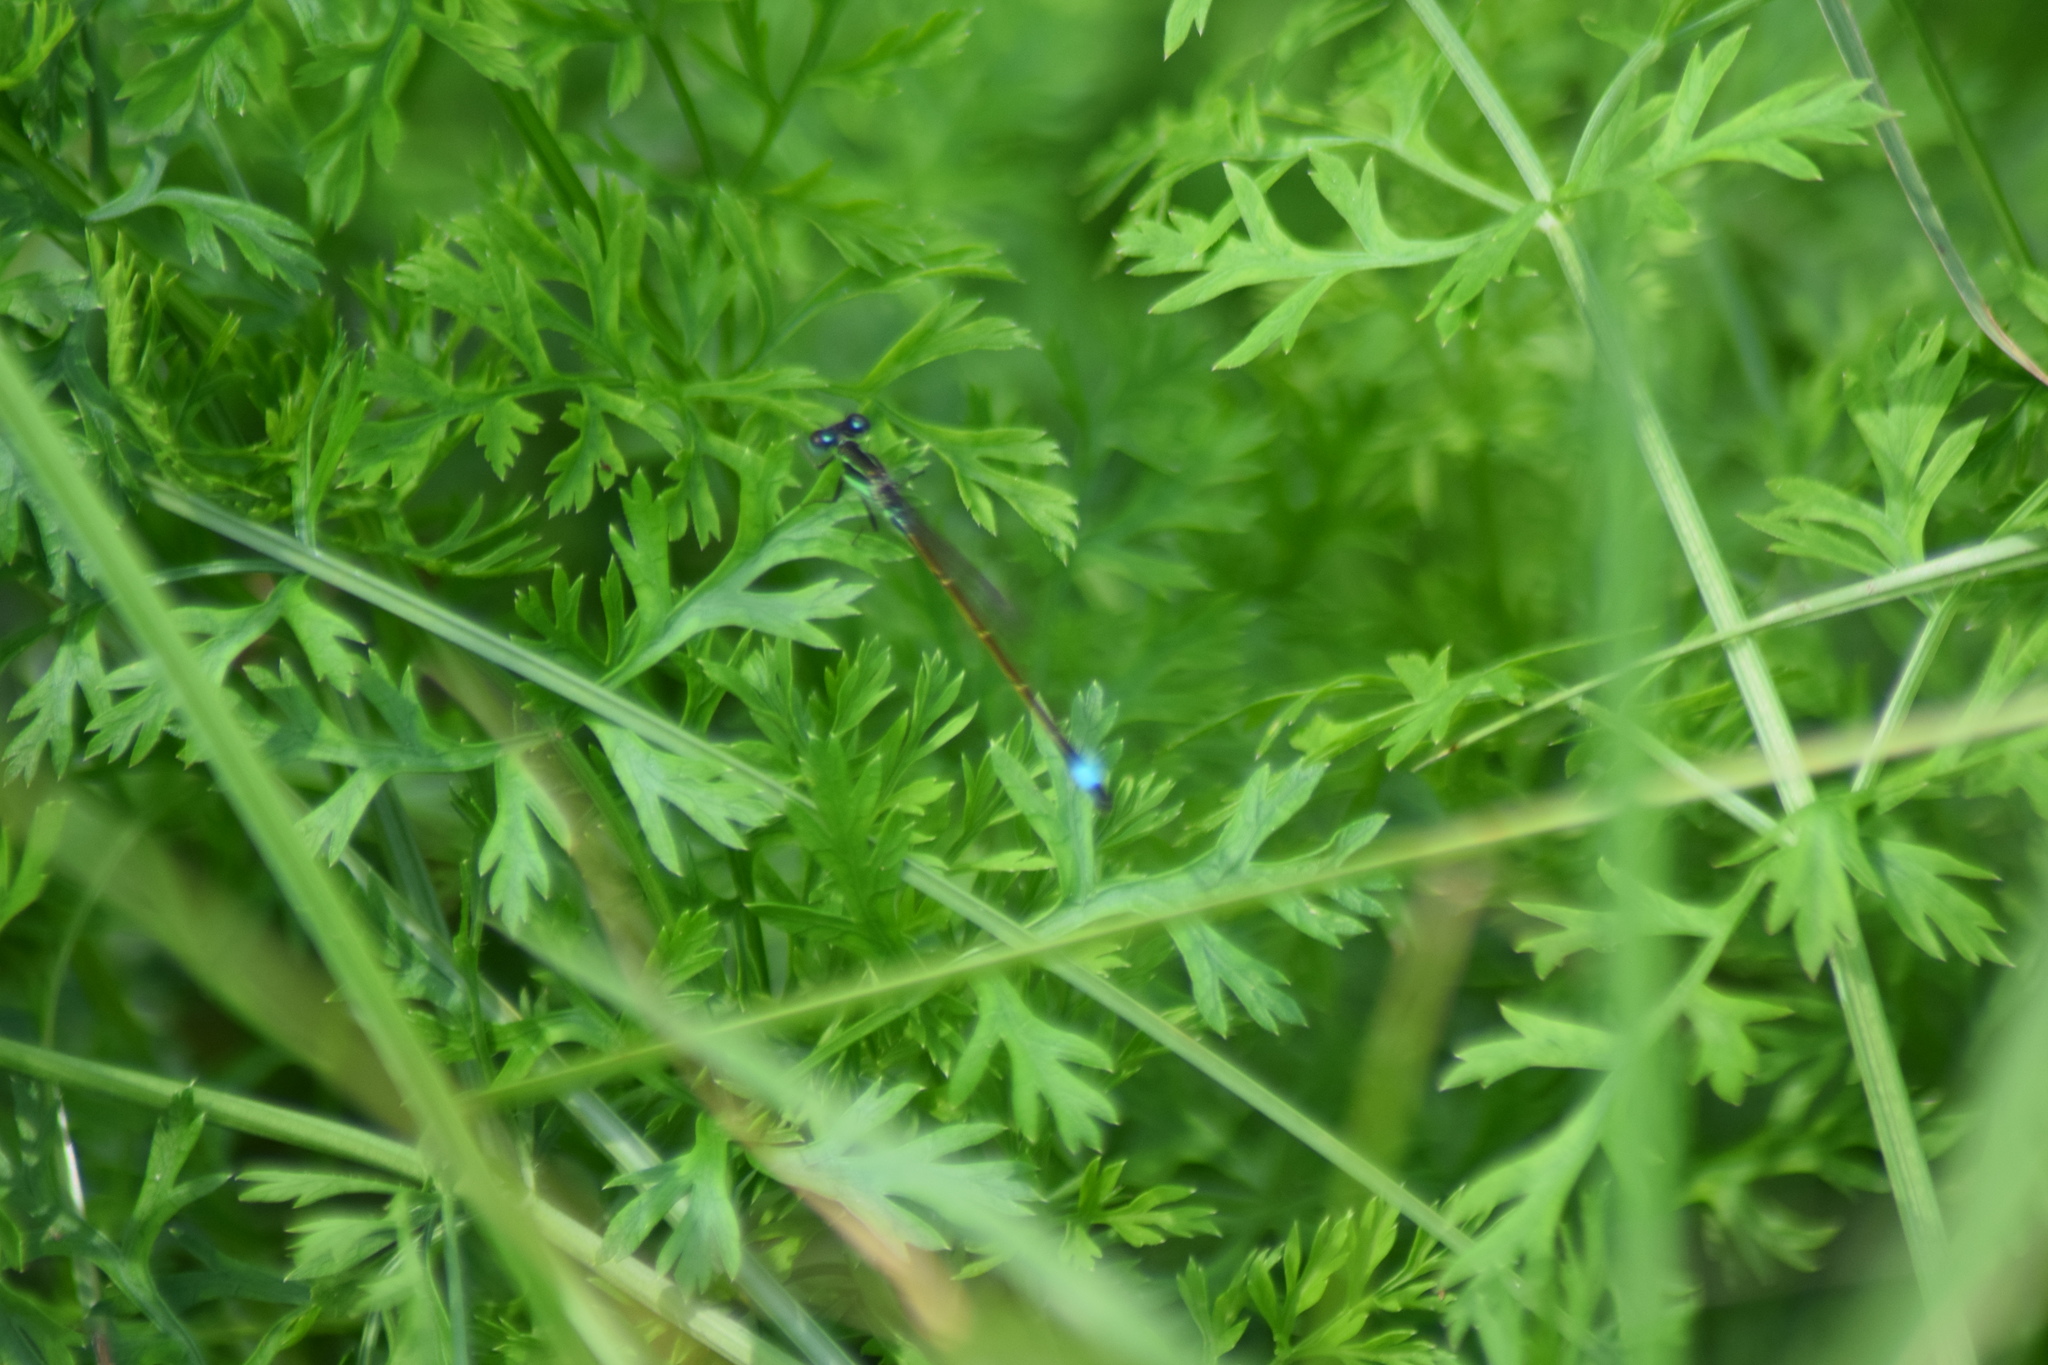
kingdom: Animalia
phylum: Arthropoda
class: Insecta
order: Odonata
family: Coenagrionidae
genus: Ischnura
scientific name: Ischnura ramburii
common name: Rambur's forktail
